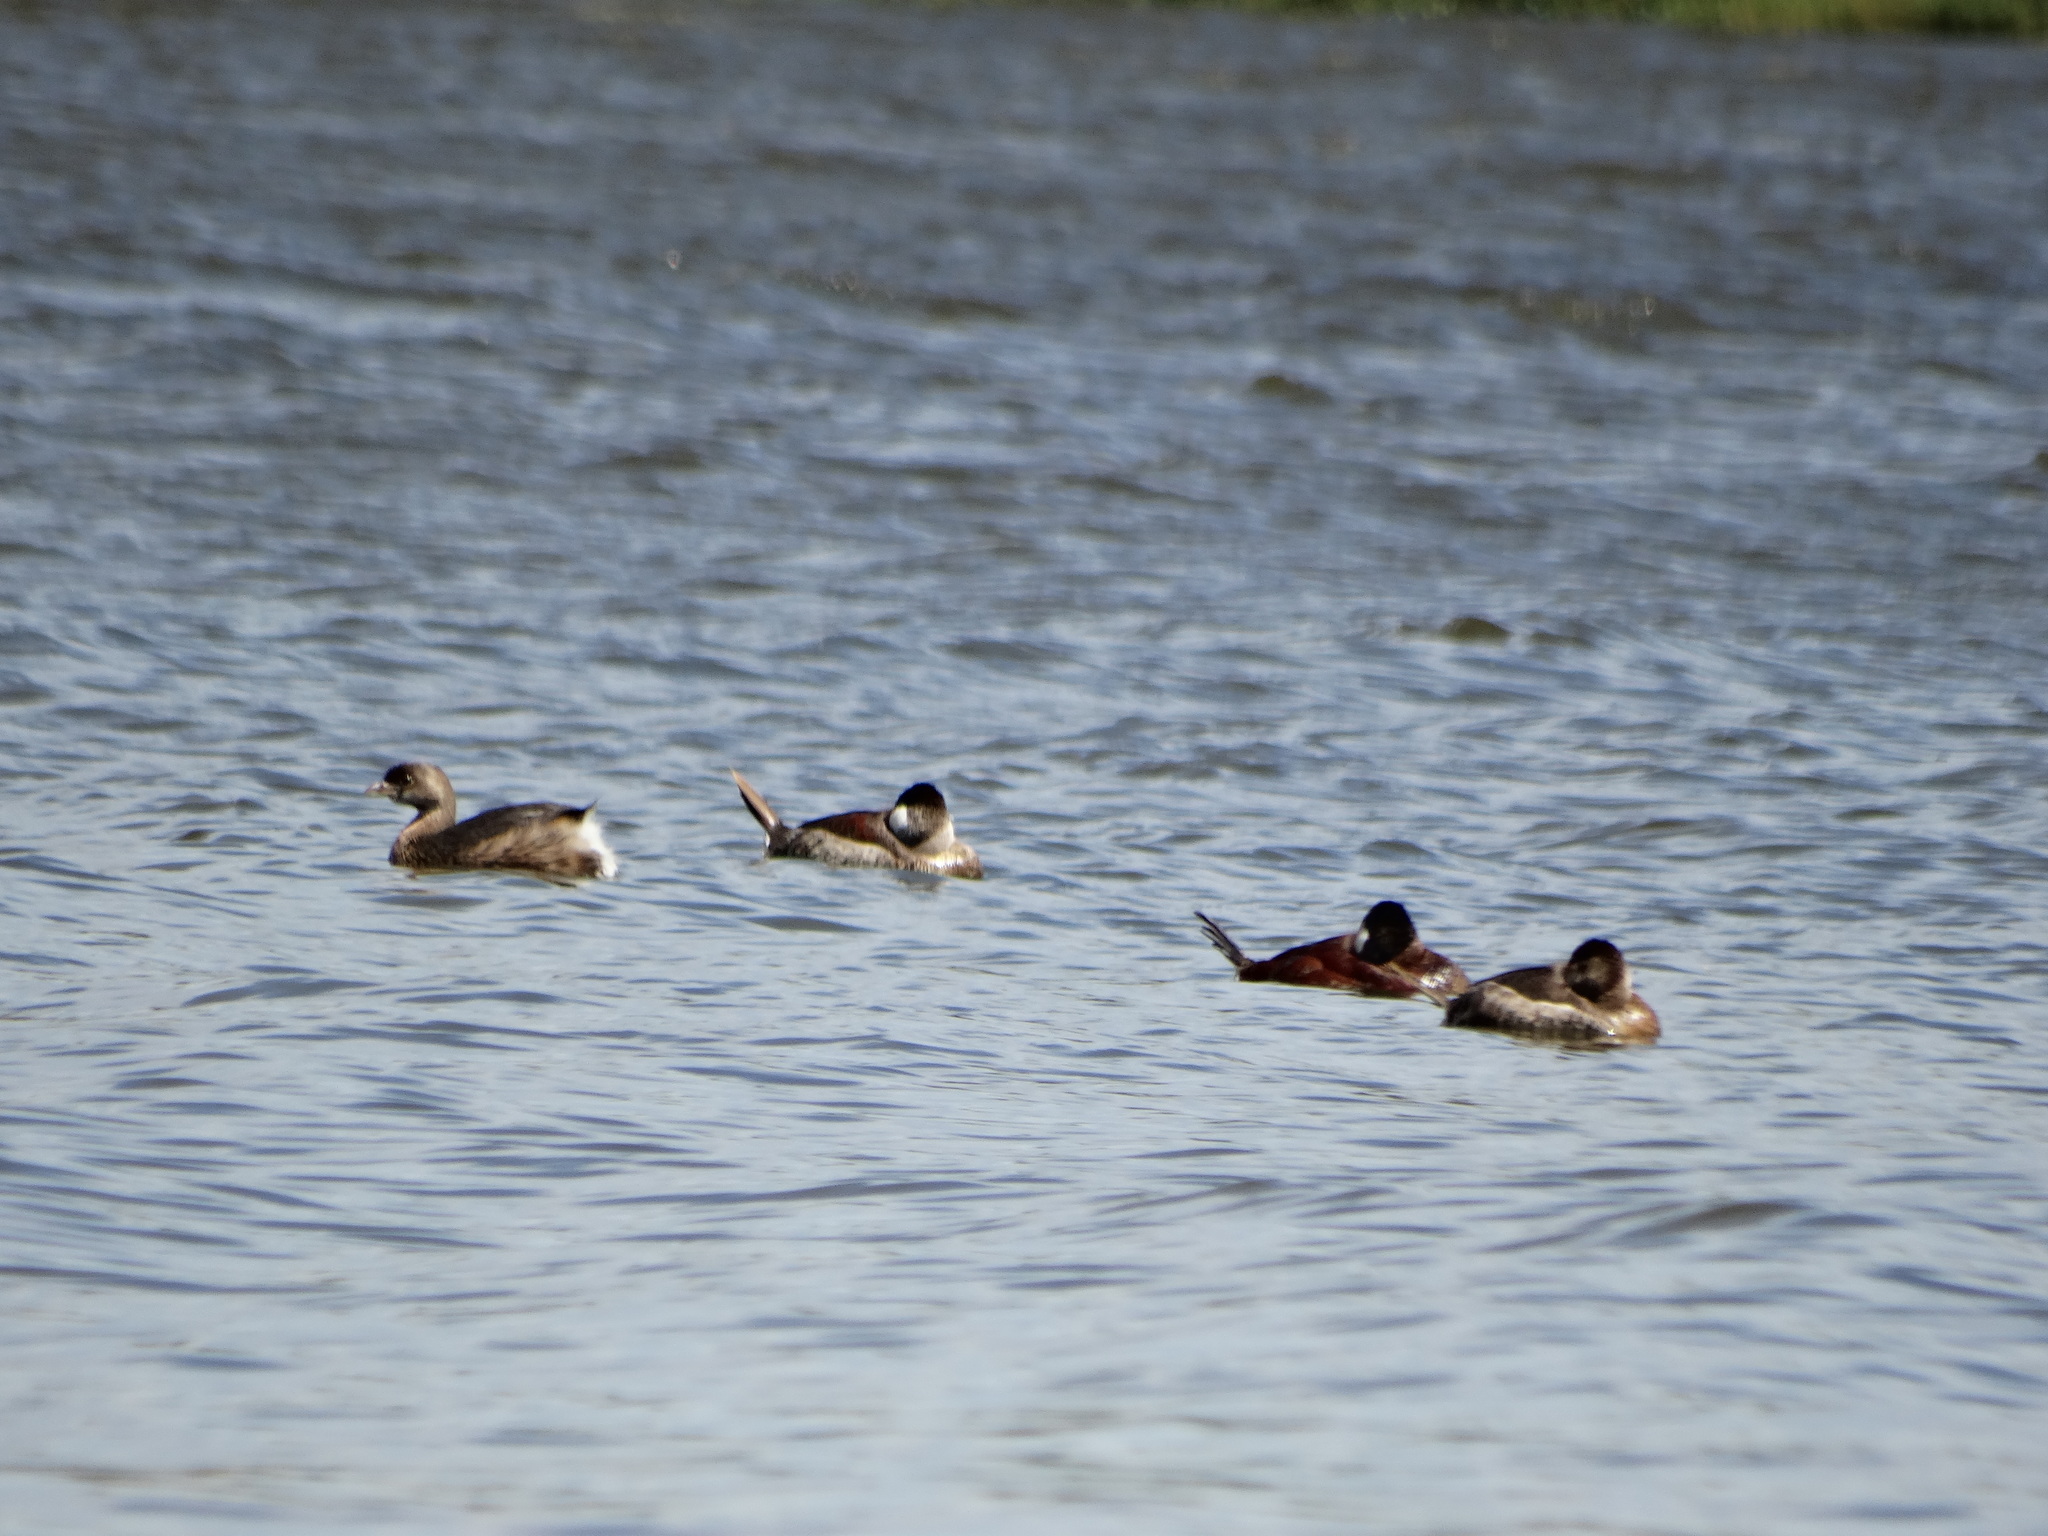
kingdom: Animalia
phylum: Chordata
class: Aves
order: Anseriformes
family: Anatidae
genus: Oxyura
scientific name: Oxyura jamaicensis
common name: Ruddy duck
